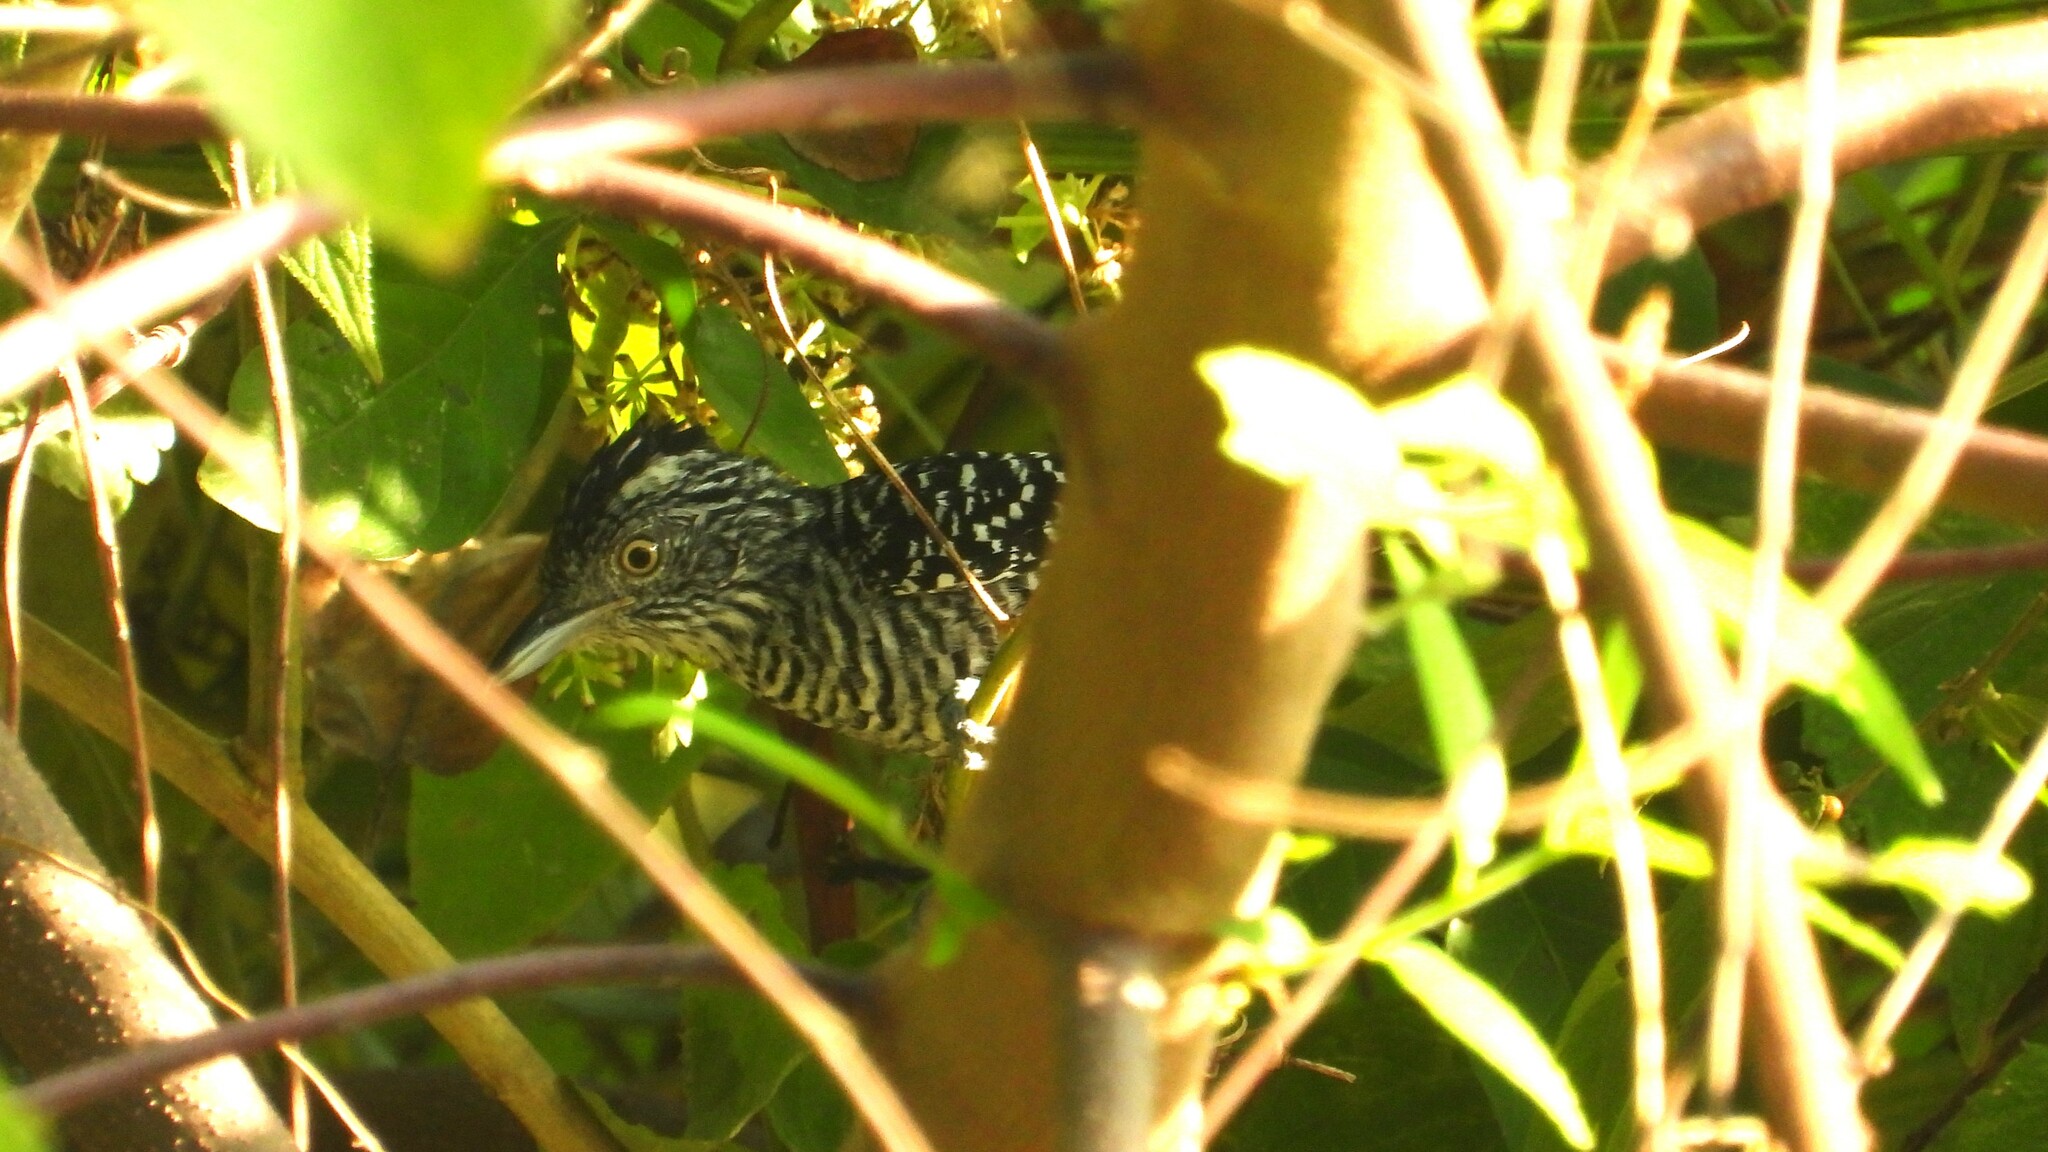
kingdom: Animalia
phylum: Chordata
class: Aves
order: Passeriformes
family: Thamnophilidae
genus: Thamnophilus
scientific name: Thamnophilus doliatus
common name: Barred antshrike
